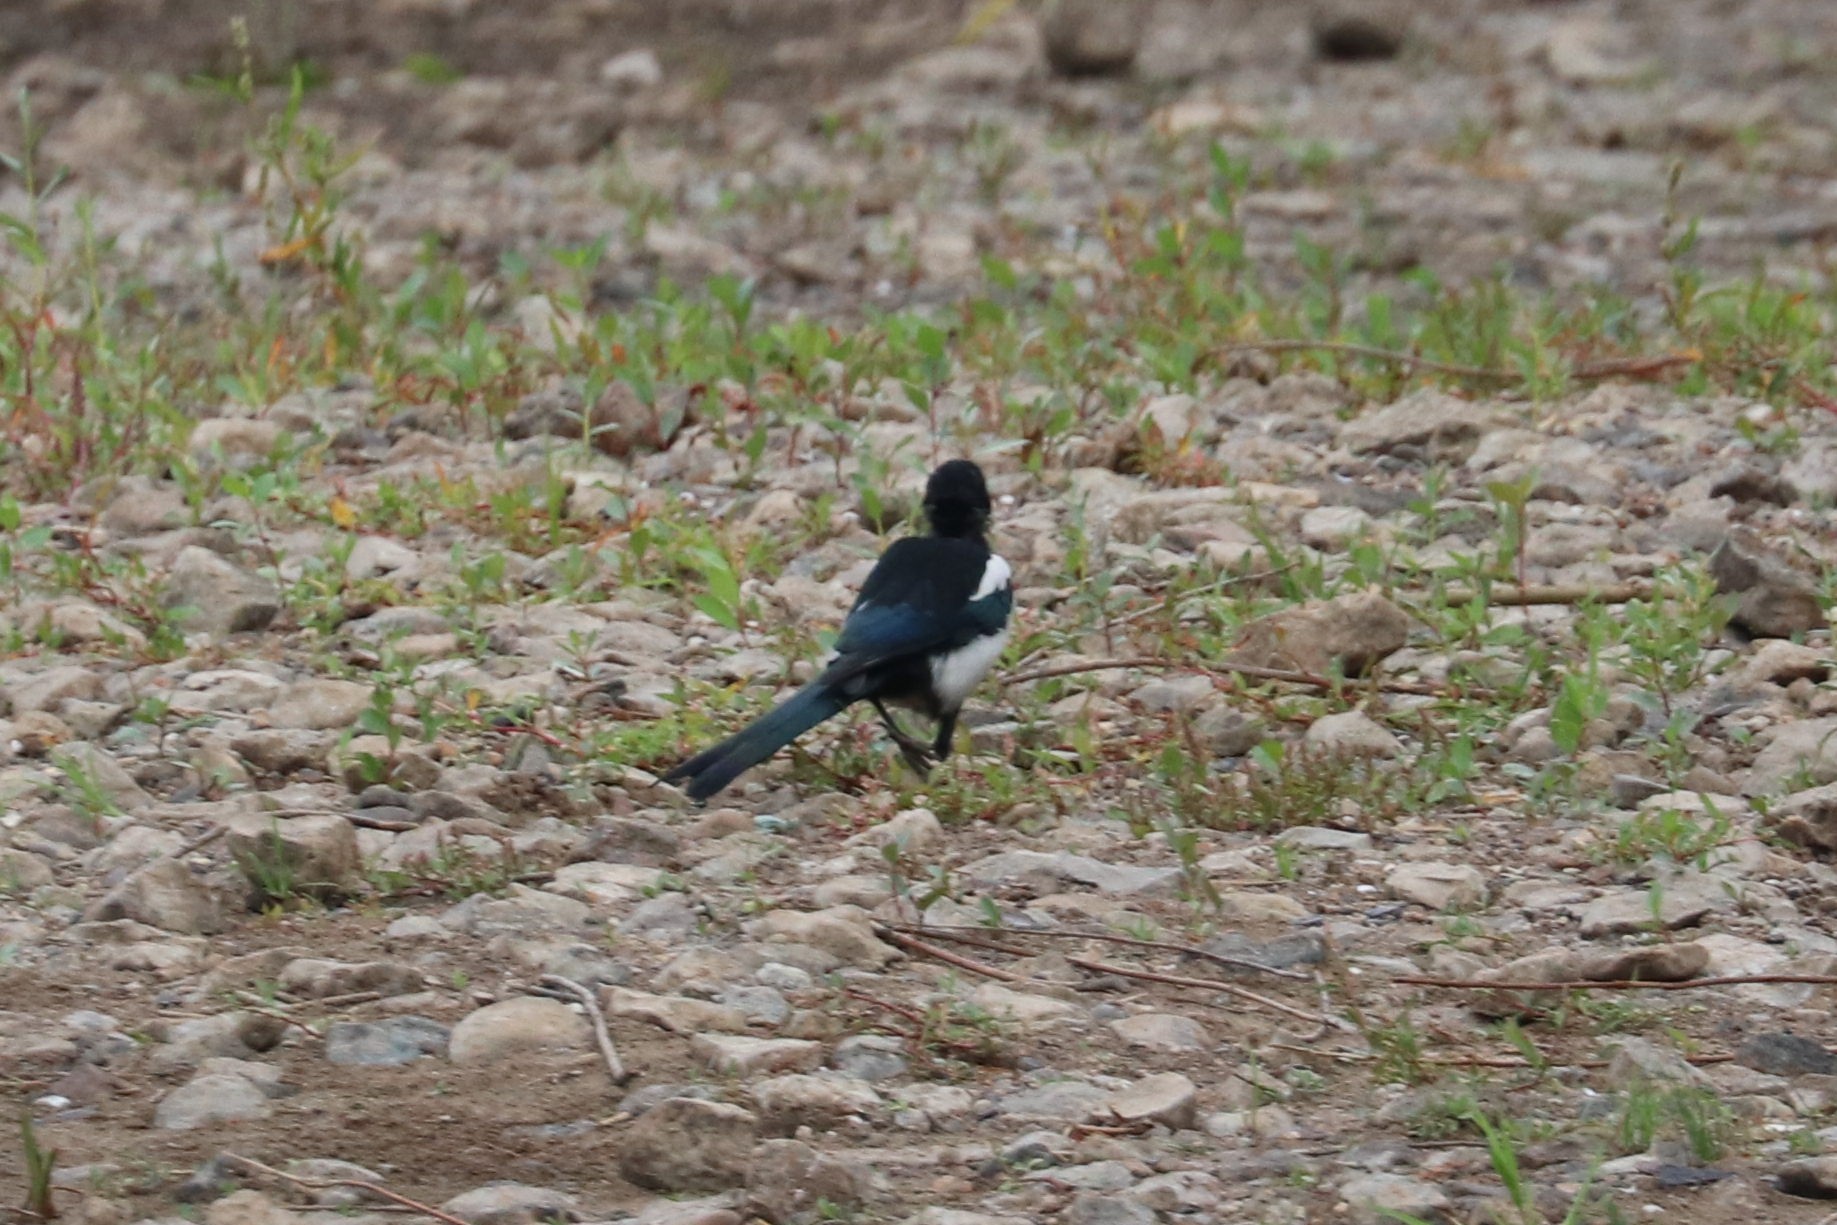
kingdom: Animalia
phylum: Chordata
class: Aves
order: Passeriformes
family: Corvidae
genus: Pica
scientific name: Pica pica
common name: Eurasian magpie
